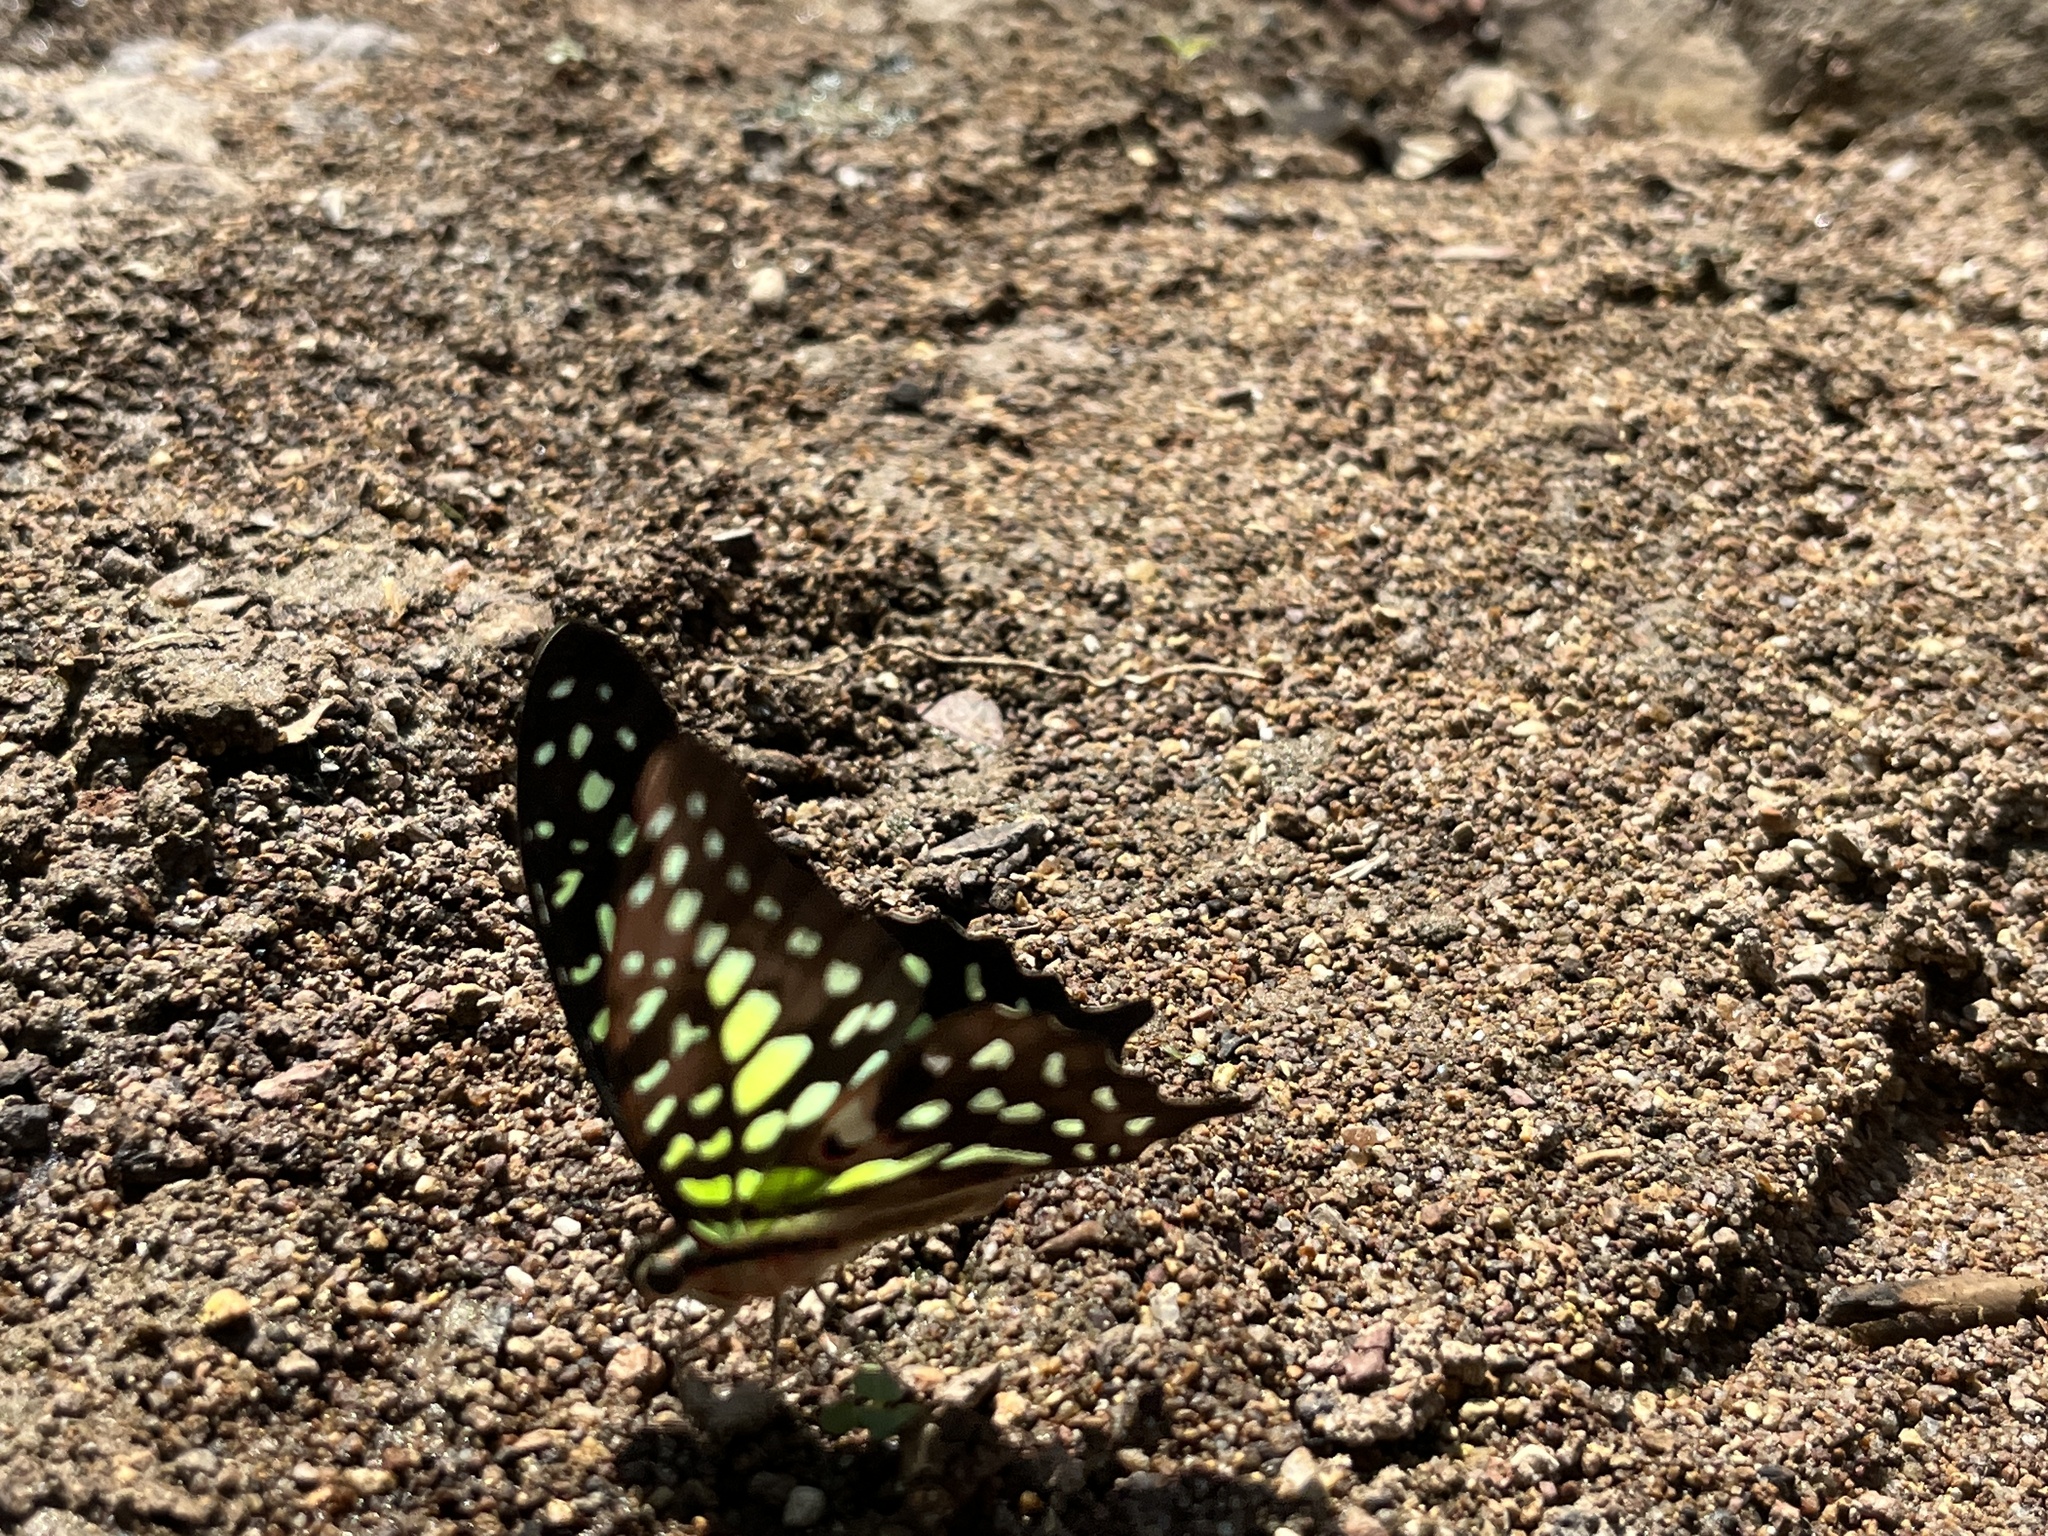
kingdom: Animalia
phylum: Arthropoda
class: Insecta
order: Lepidoptera
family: Papilionidae
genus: Graphium
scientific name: Graphium agamemnon
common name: Tailed jay
